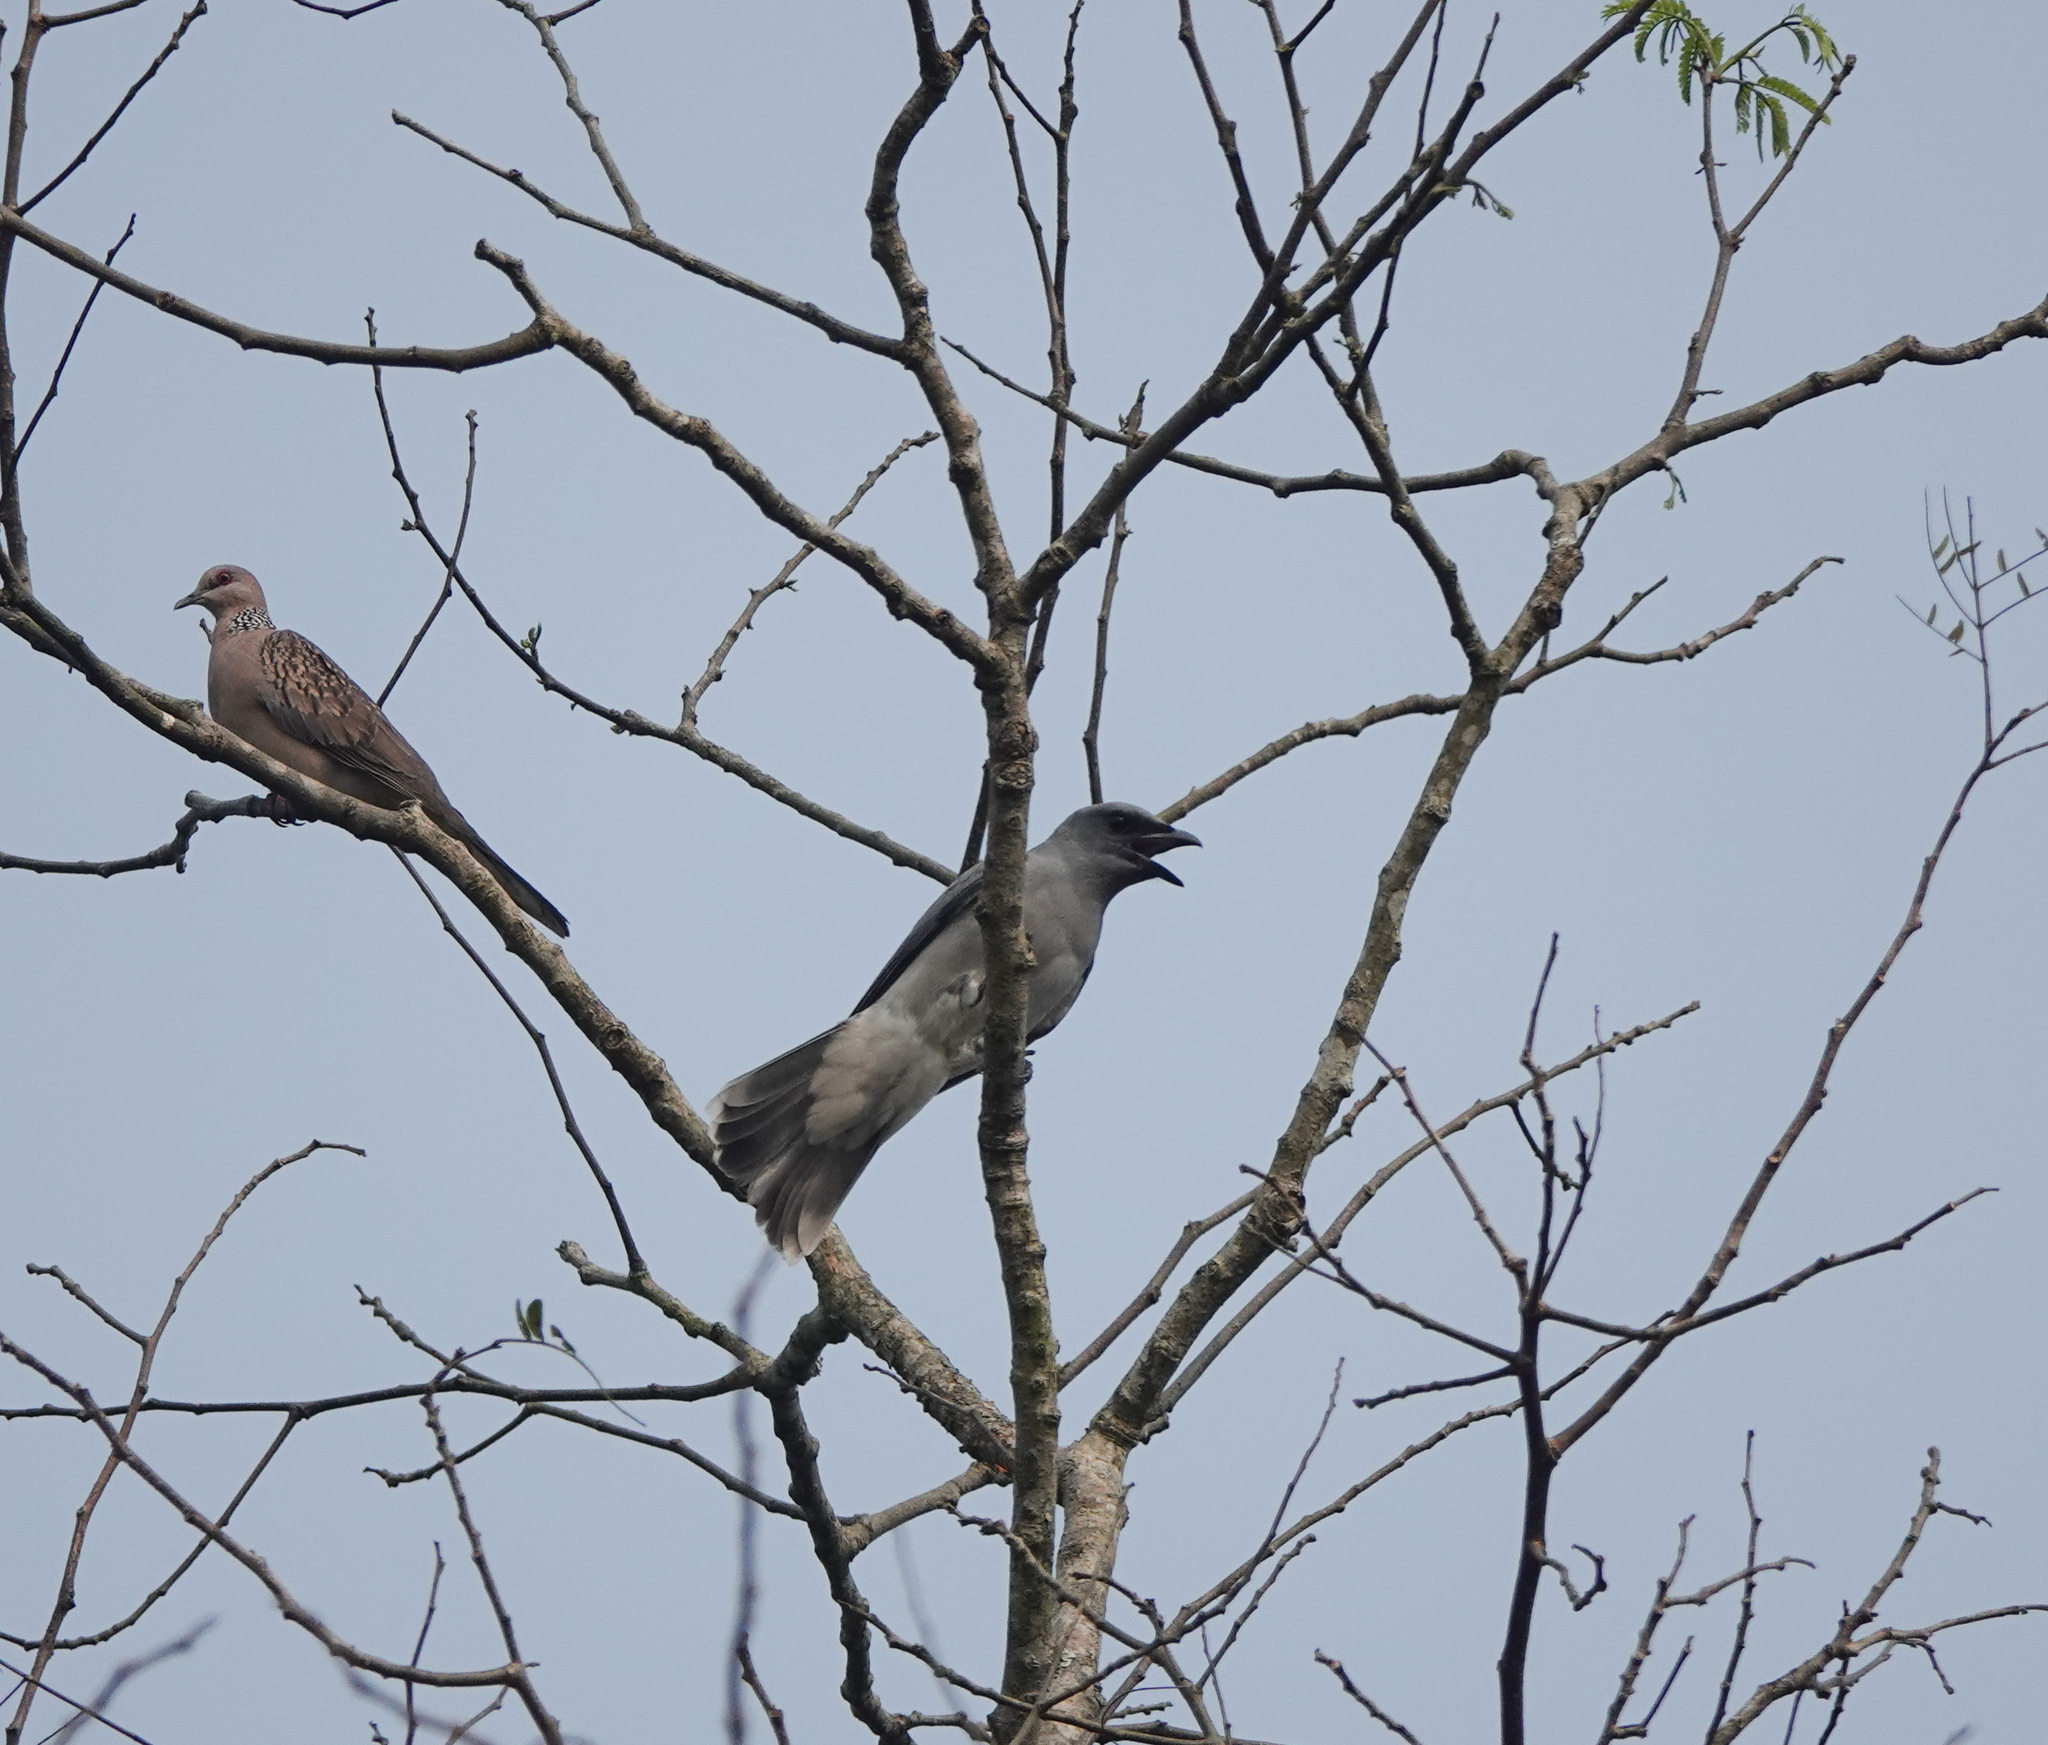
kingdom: Animalia
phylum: Chordata
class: Aves
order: Passeriformes
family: Campephagidae
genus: Coracina
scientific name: Coracina macei
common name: Large cuckooshrike
